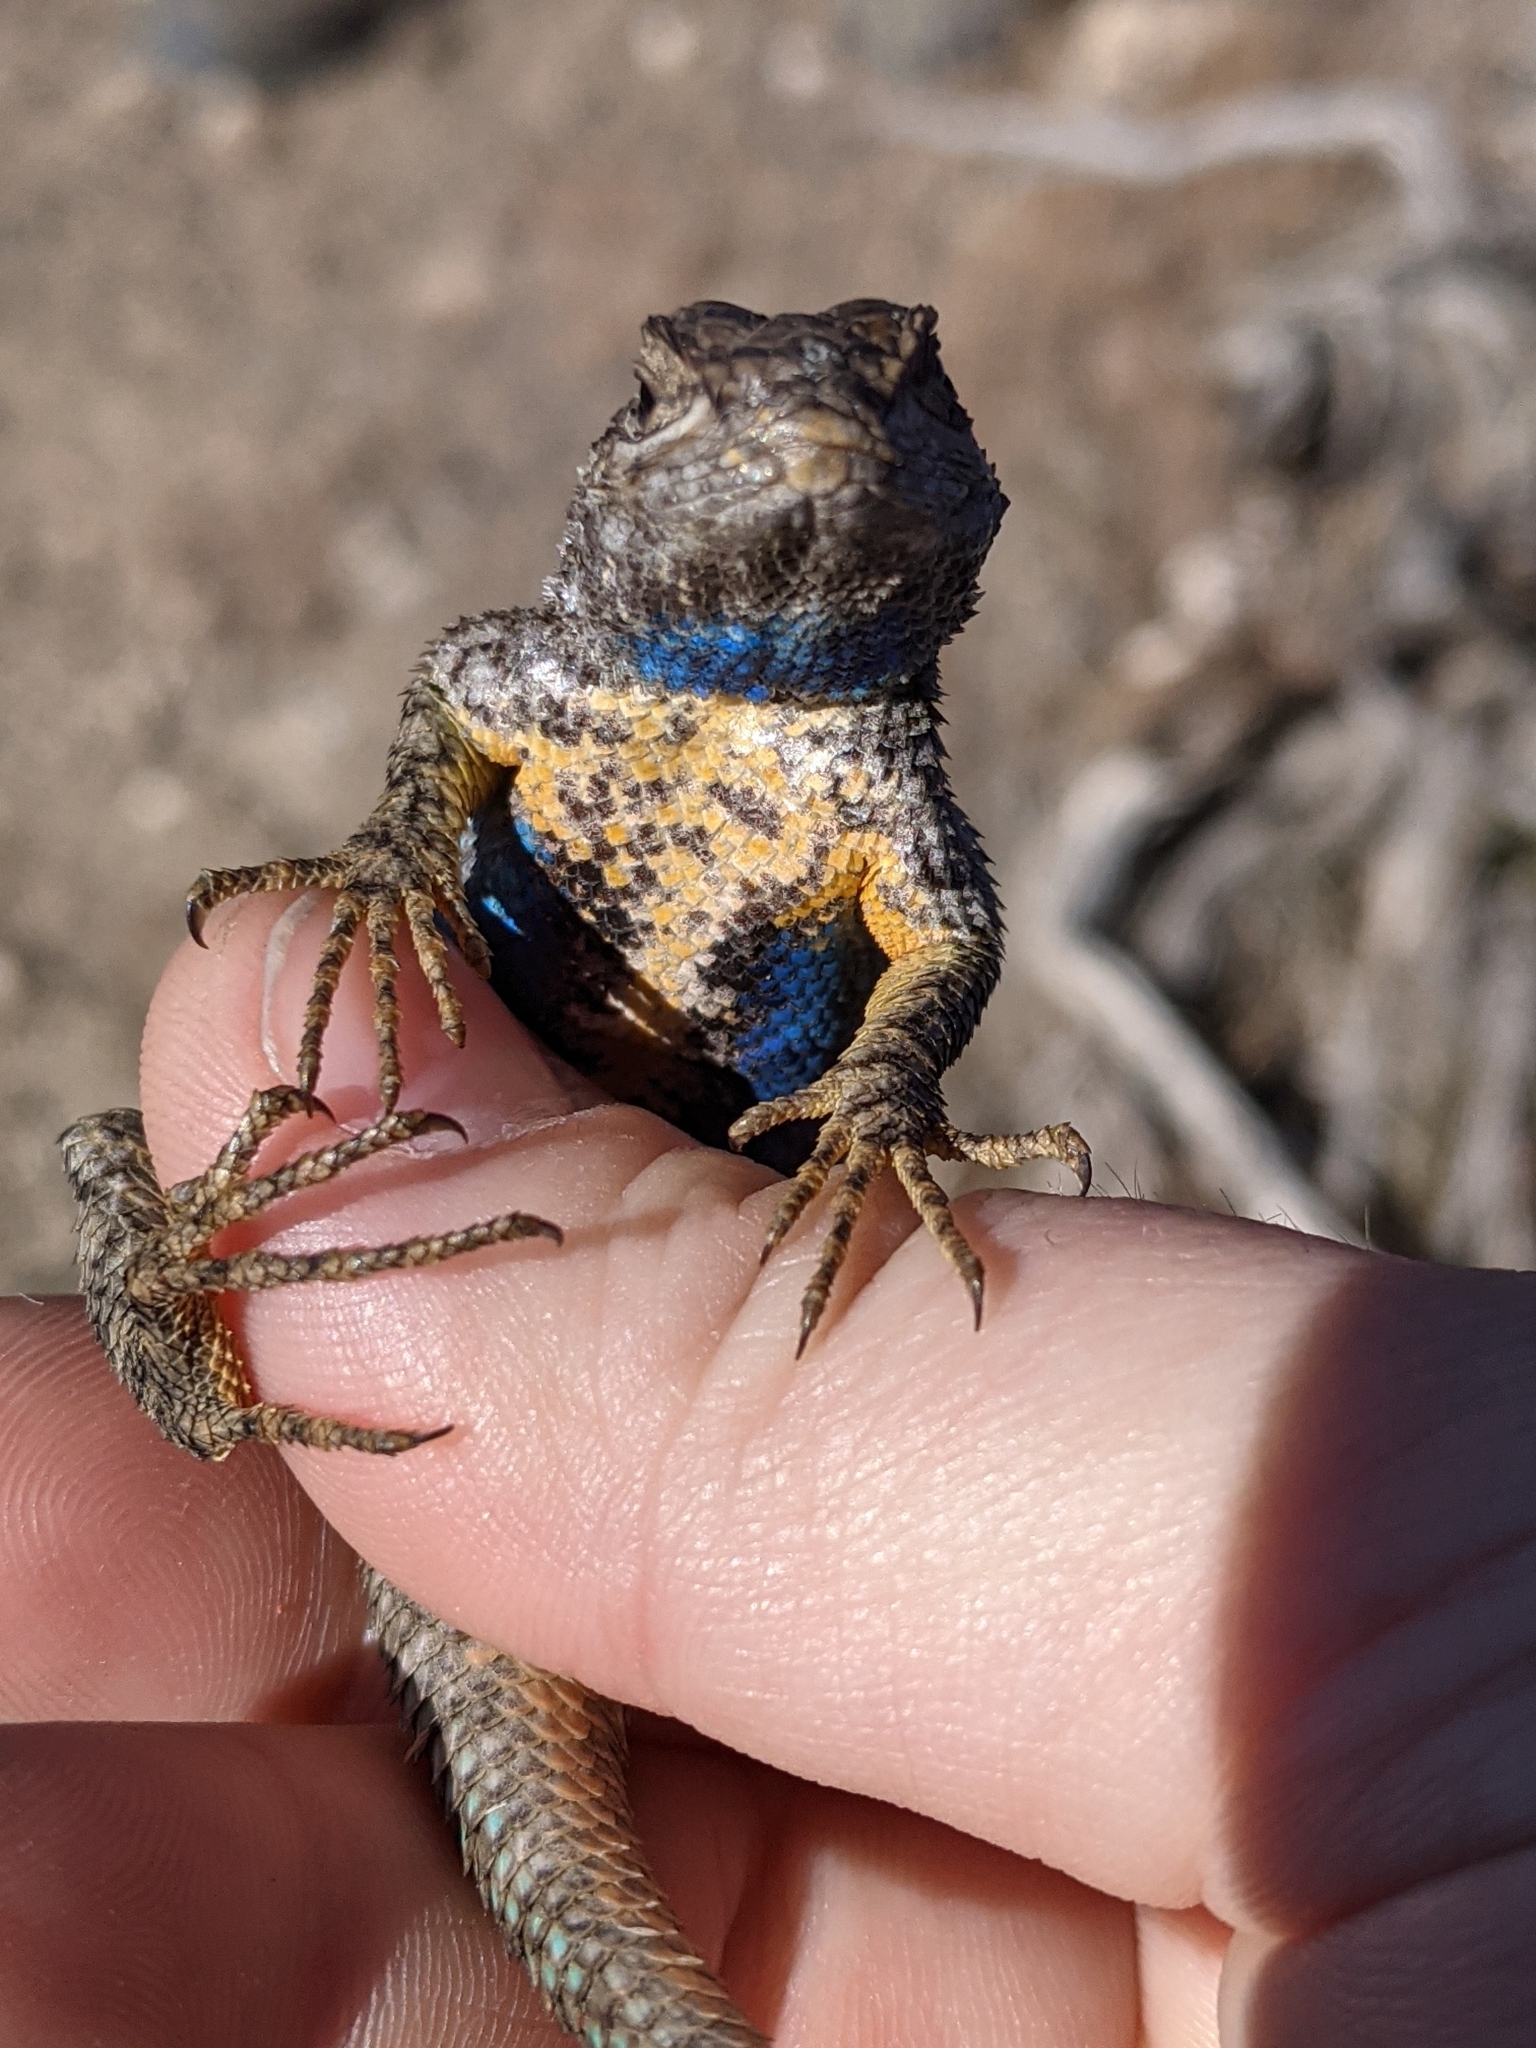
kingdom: Animalia
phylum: Chordata
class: Squamata
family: Phrynosomatidae
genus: Sceloporus
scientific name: Sceloporus occidentalis
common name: Western fence lizard
